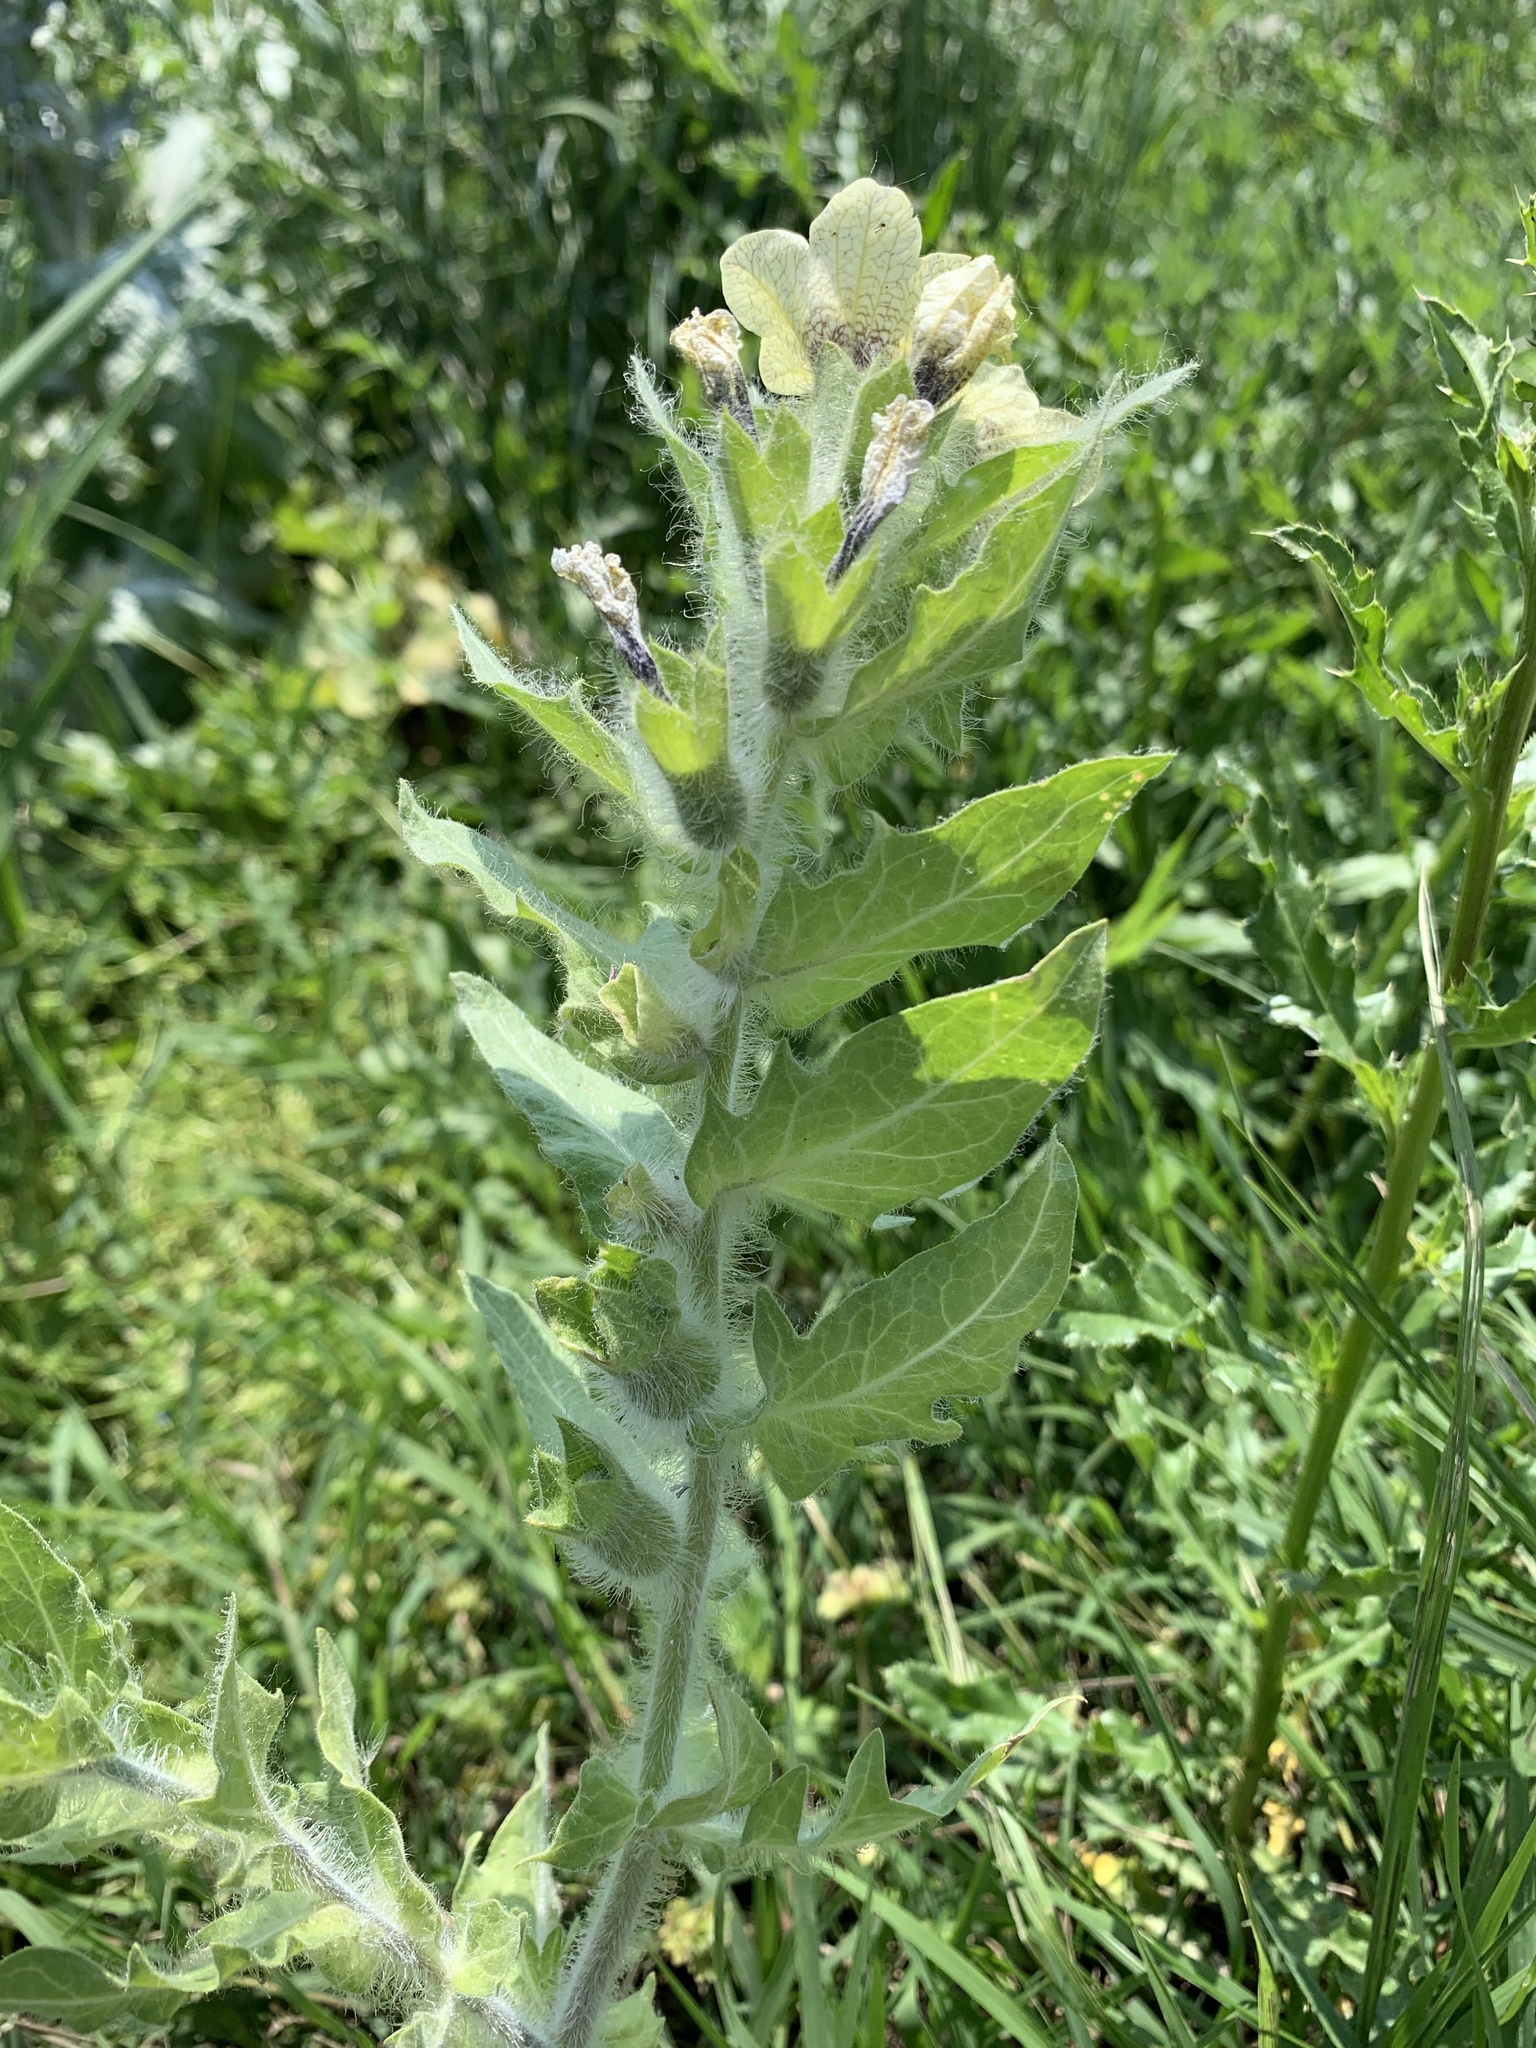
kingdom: Plantae
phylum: Tracheophyta
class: Magnoliopsida
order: Solanales
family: Solanaceae
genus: Hyoscyamus
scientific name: Hyoscyamus niger
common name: Henbane
